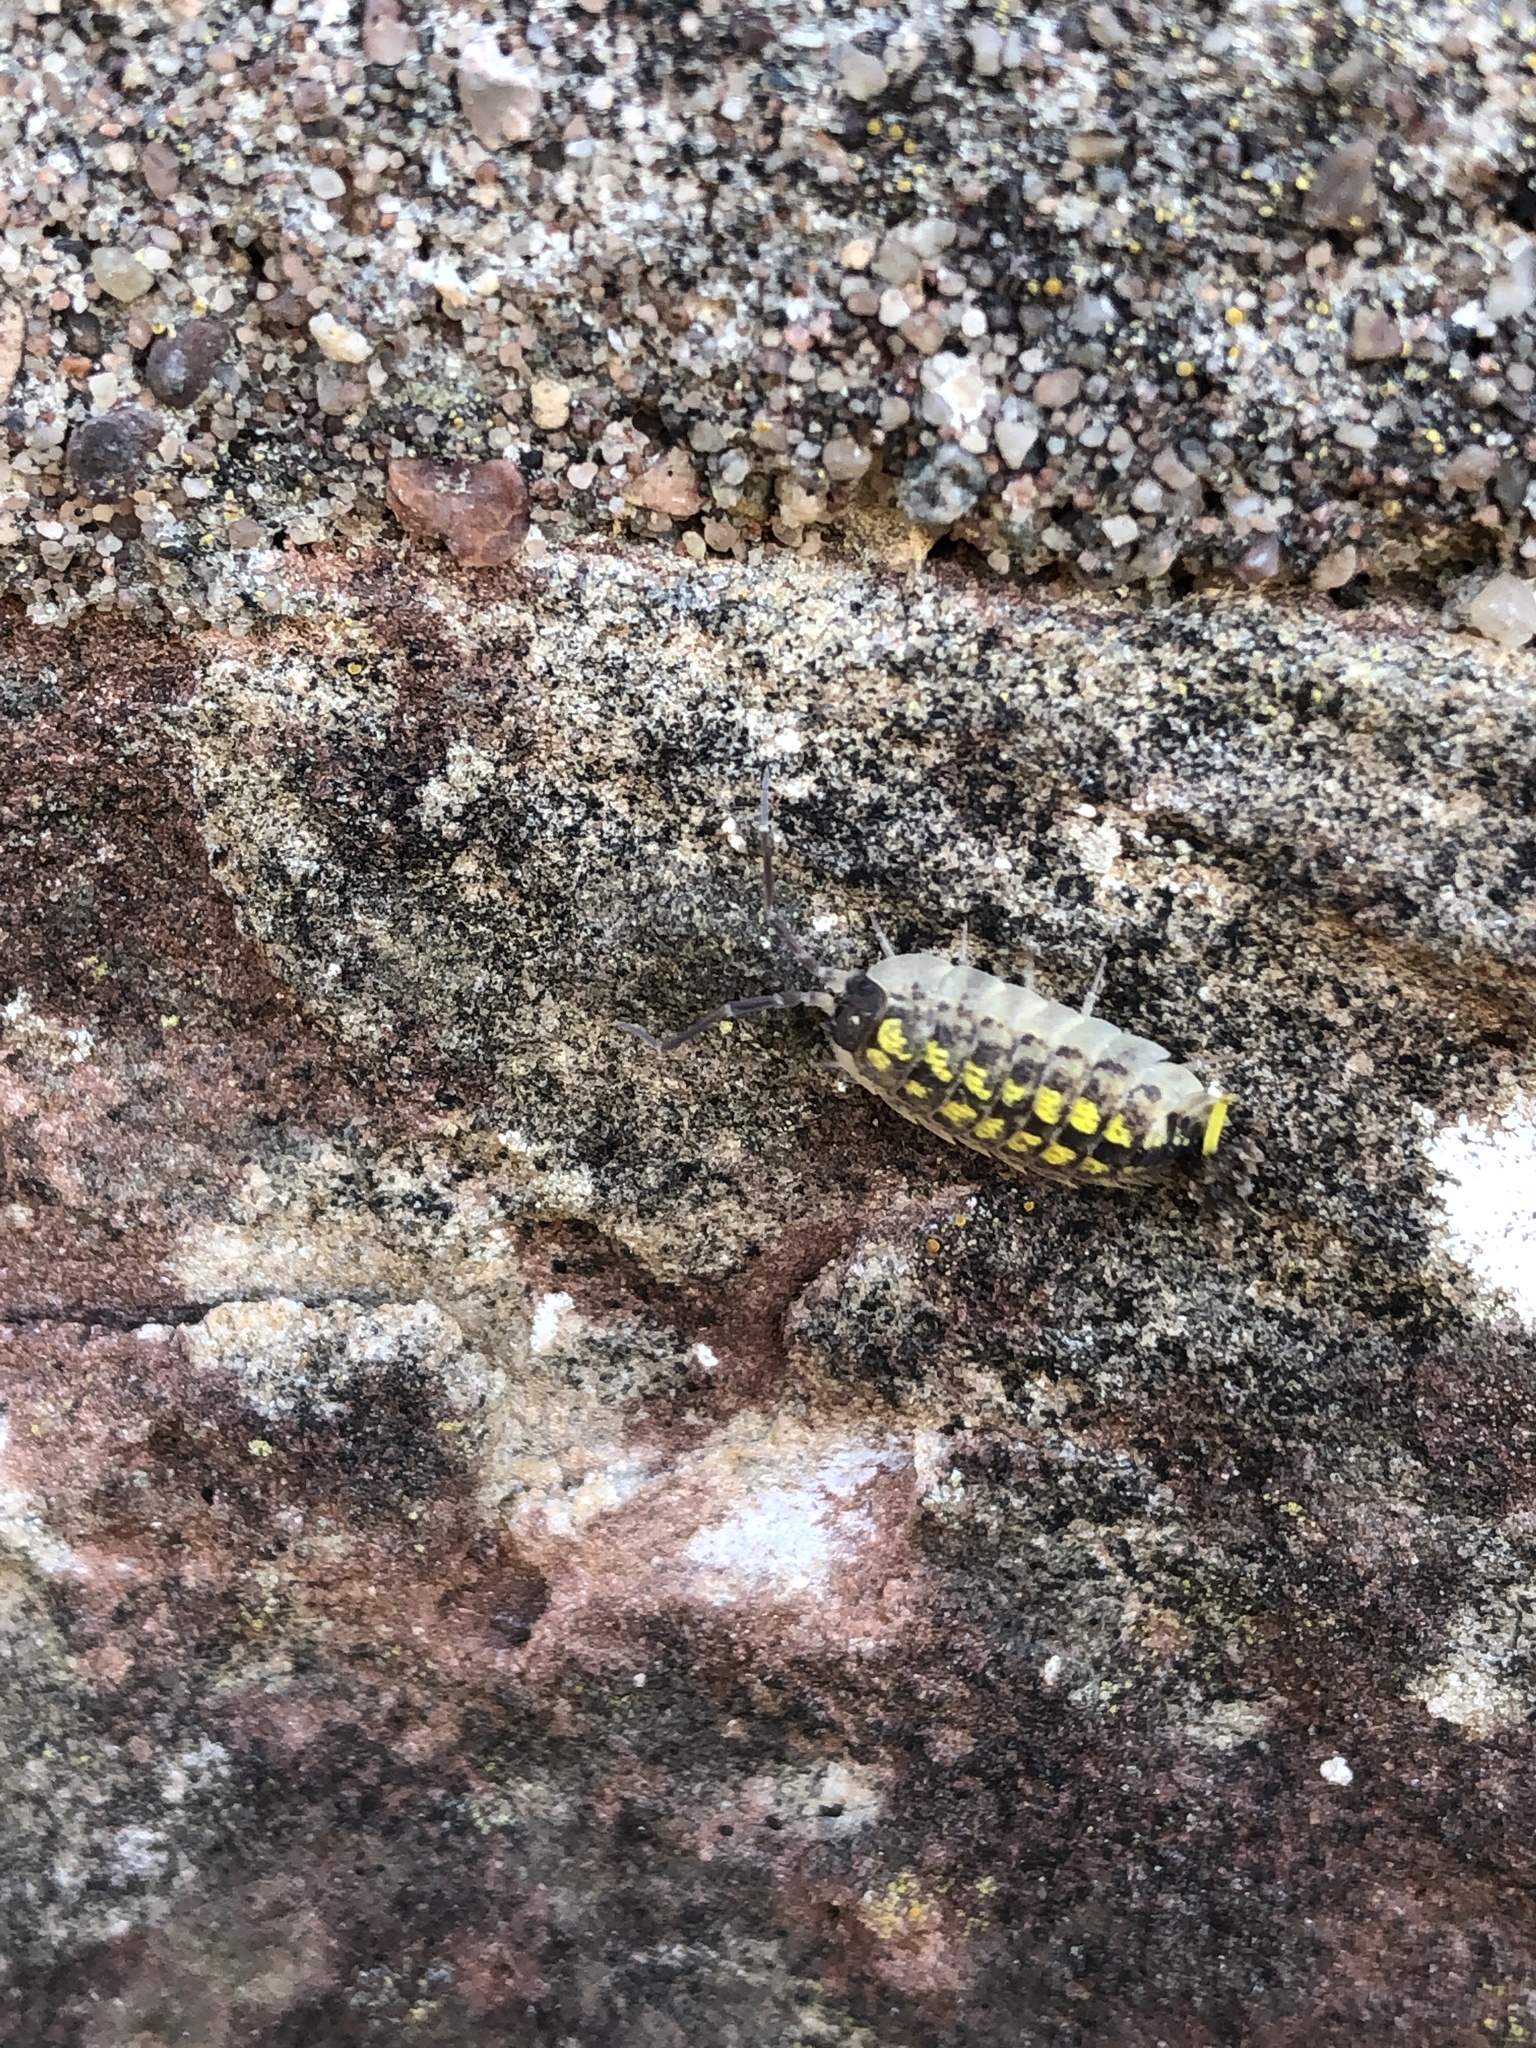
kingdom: Animalia
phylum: Arthropoda
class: Malacostraca
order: Isopoda
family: Porcellionidae
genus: Porcellio
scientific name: Porcellio spinicornis
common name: Painted woodlouse
